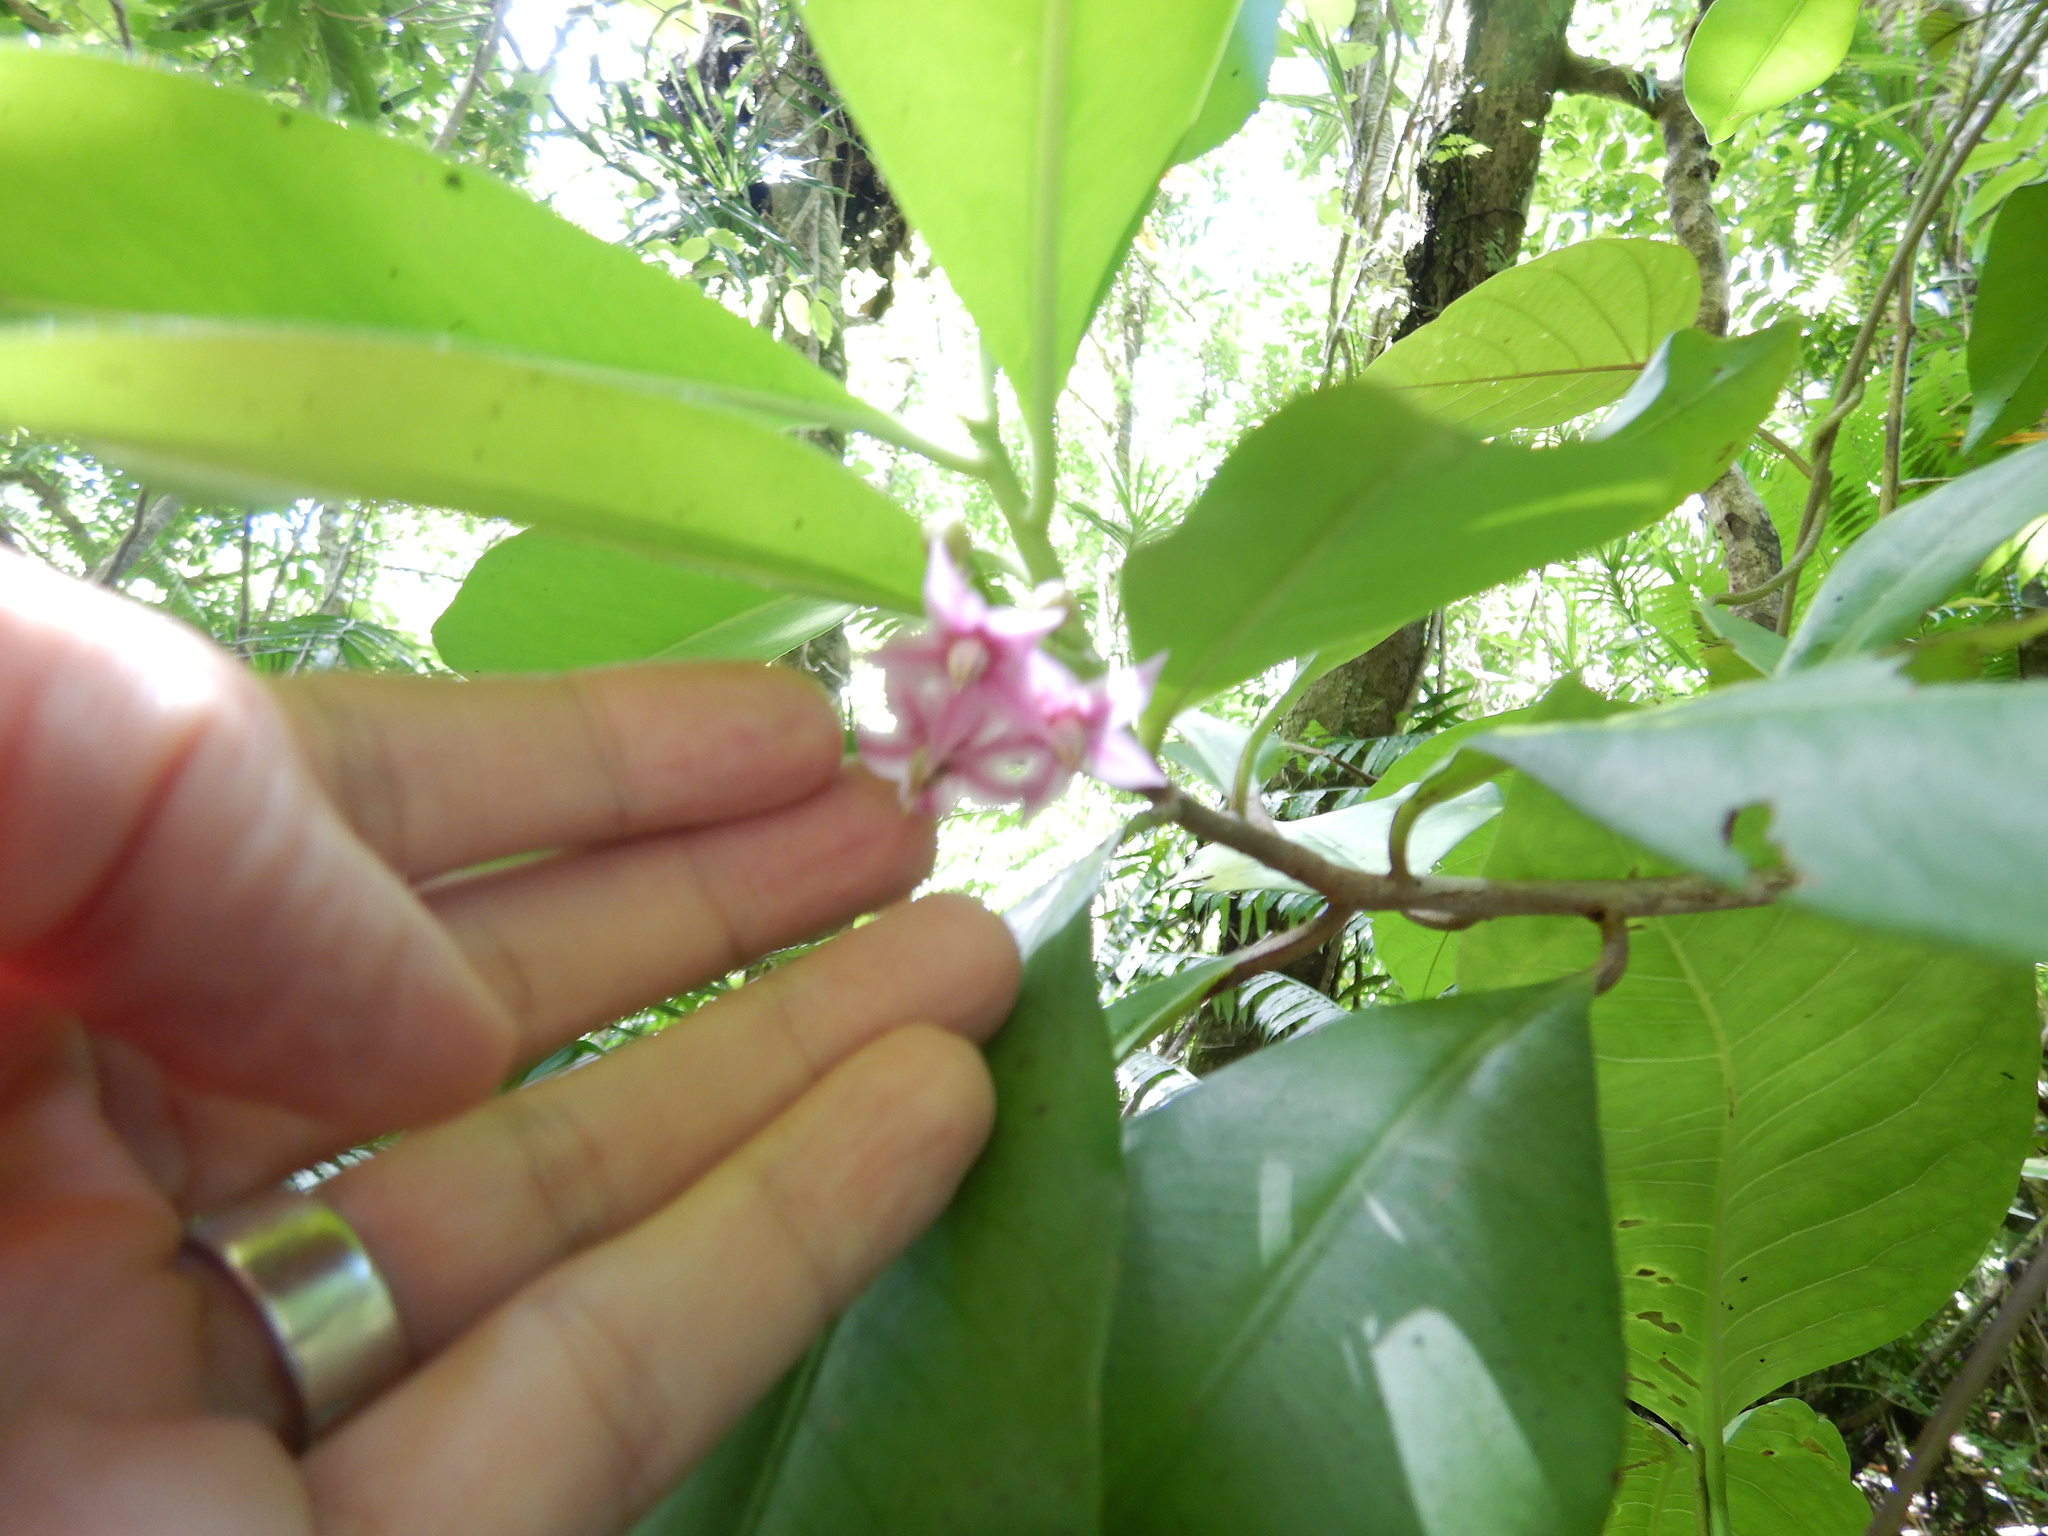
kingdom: Plantae
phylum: Tracheophyta
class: Magnoliopsida
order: Ericales
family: Primulaceae
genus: Ardisia
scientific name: Ardisia elliptica
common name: Shoebutton
